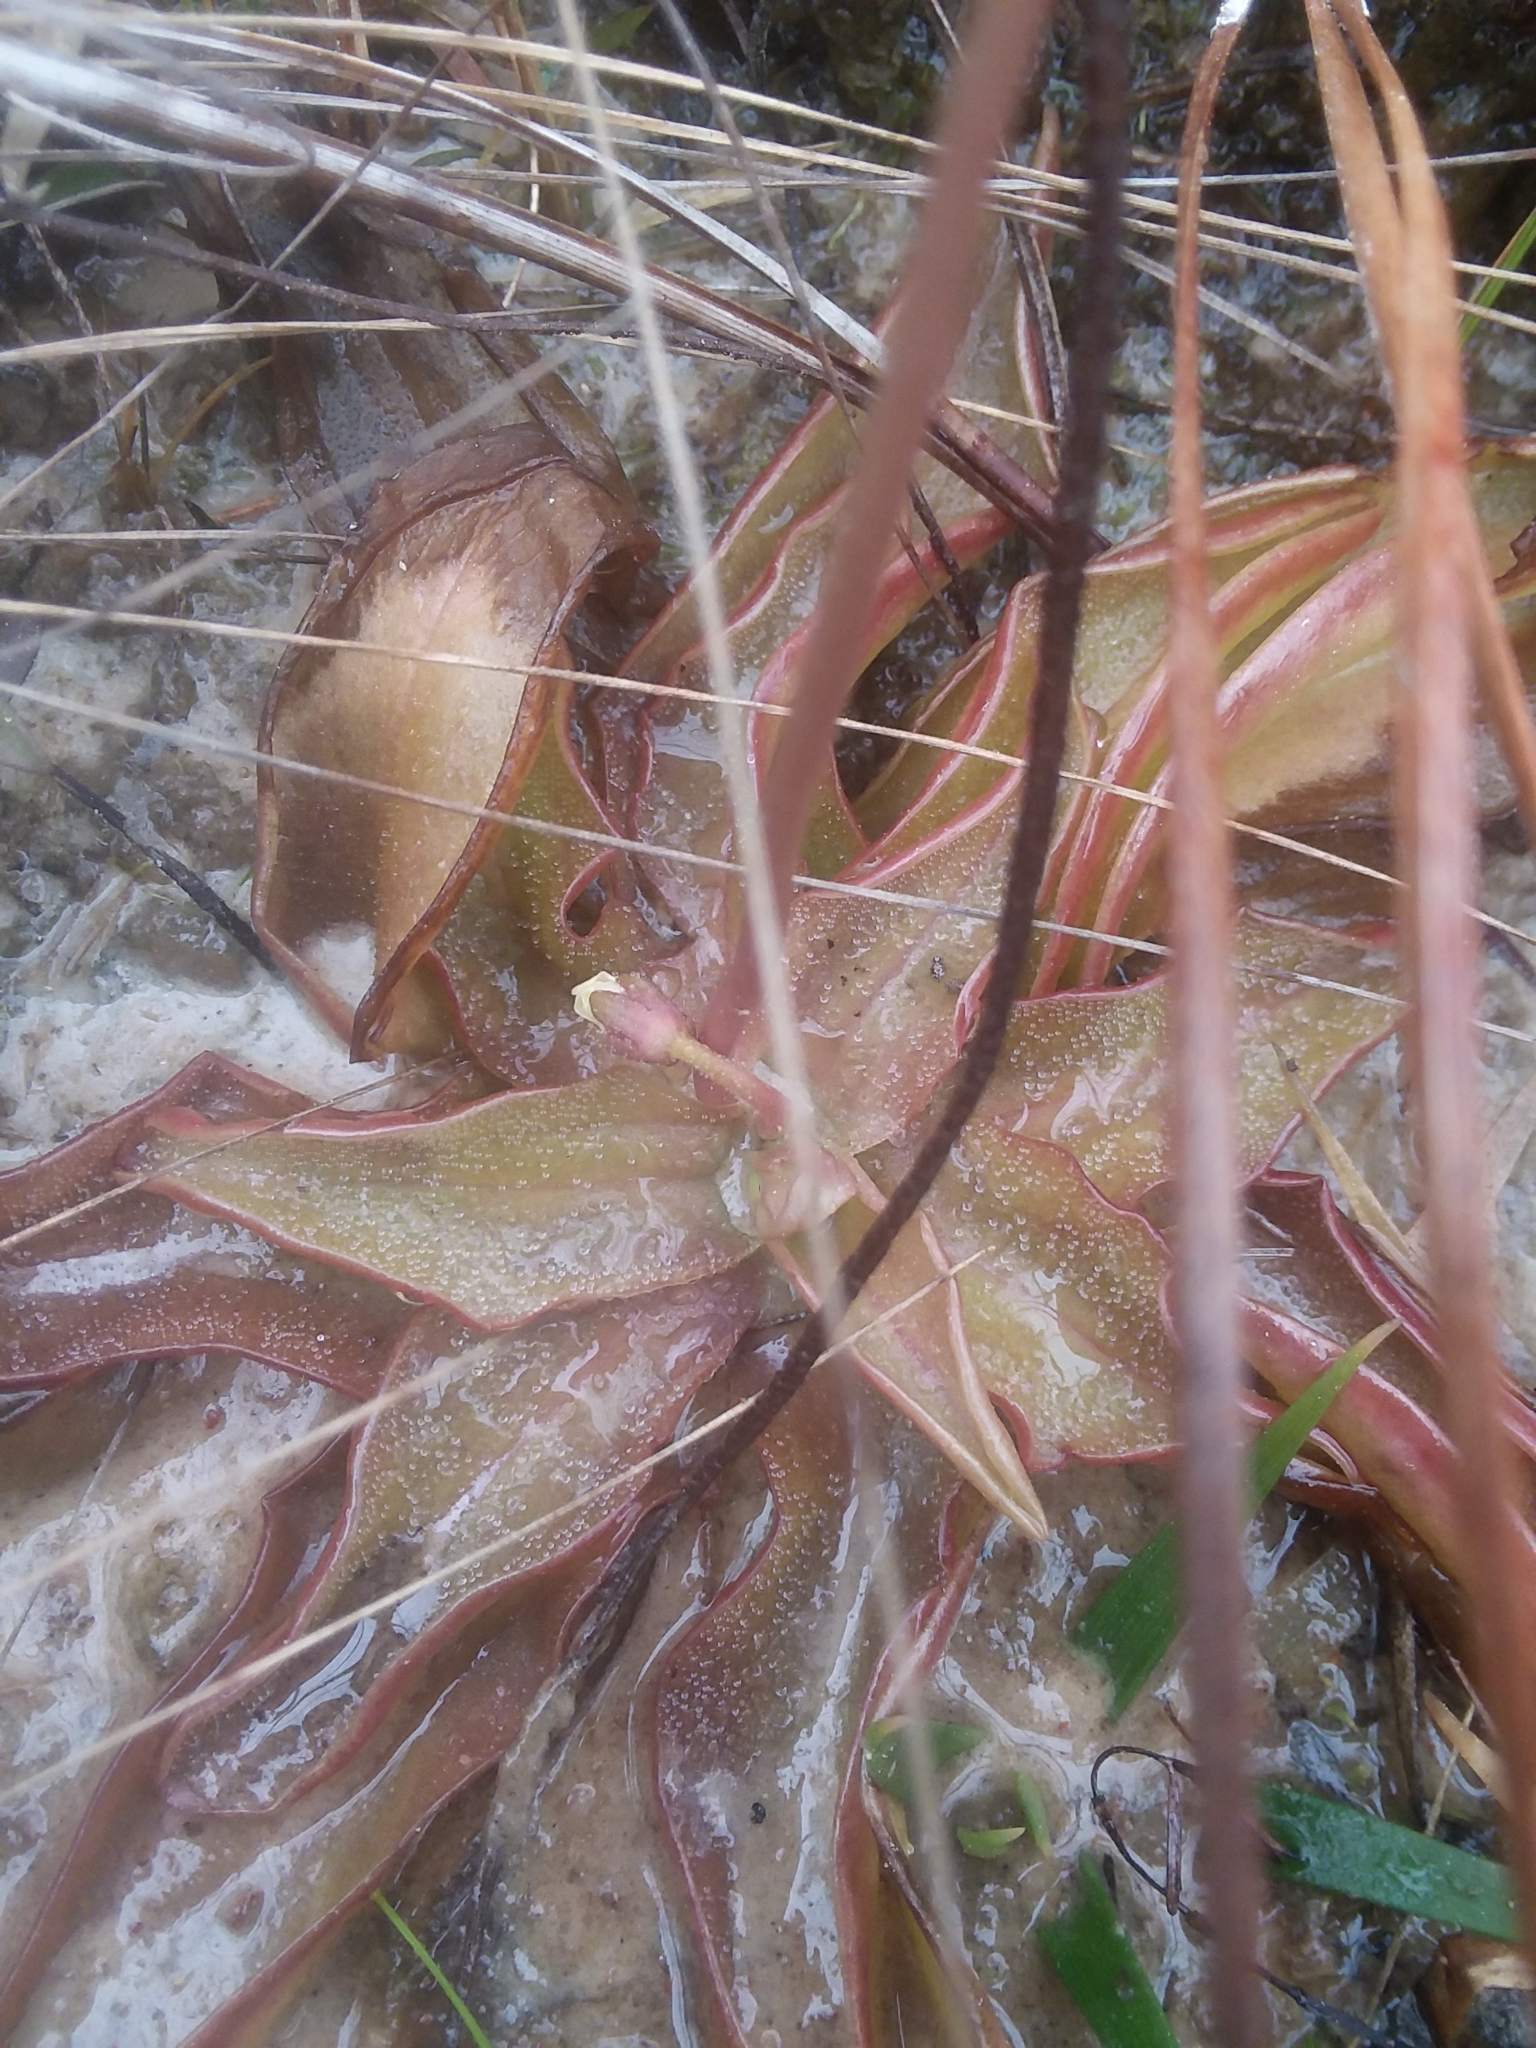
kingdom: Plantae
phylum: Tracheophyta
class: Magnoliopsida
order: Lamiales
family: Lentibulariaceae
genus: Pinguicula
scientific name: Pinguicula planifolia
